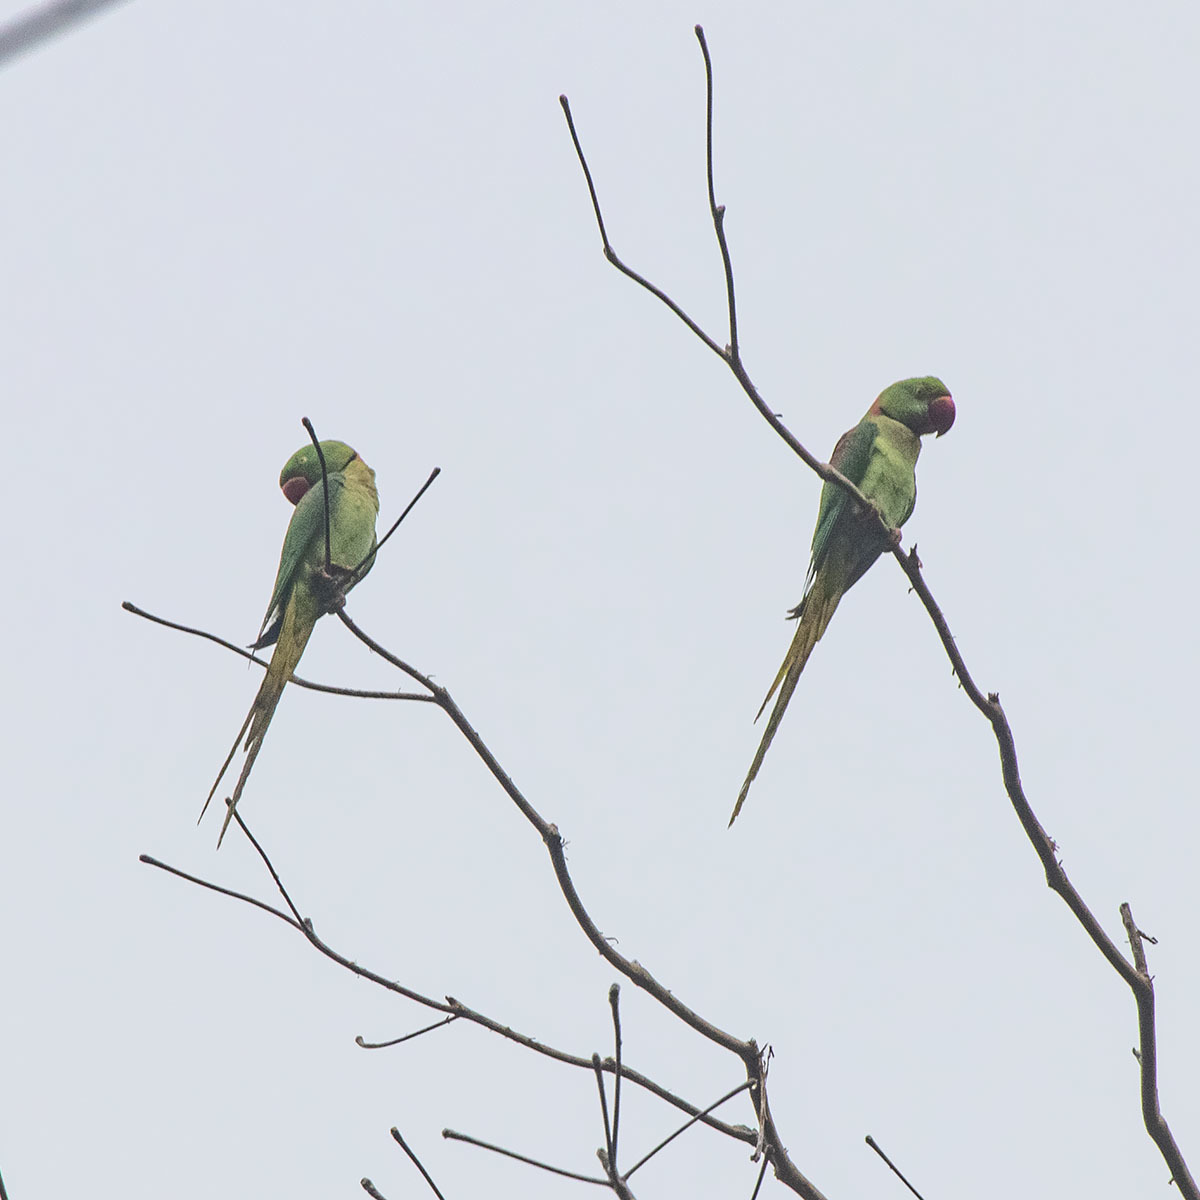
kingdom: Animalia
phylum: Chordata
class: Aves
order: Psittaciformes
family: Psittacidae
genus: Psittacula
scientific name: Psittacula eupatria
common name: Alexandrine parakeet
